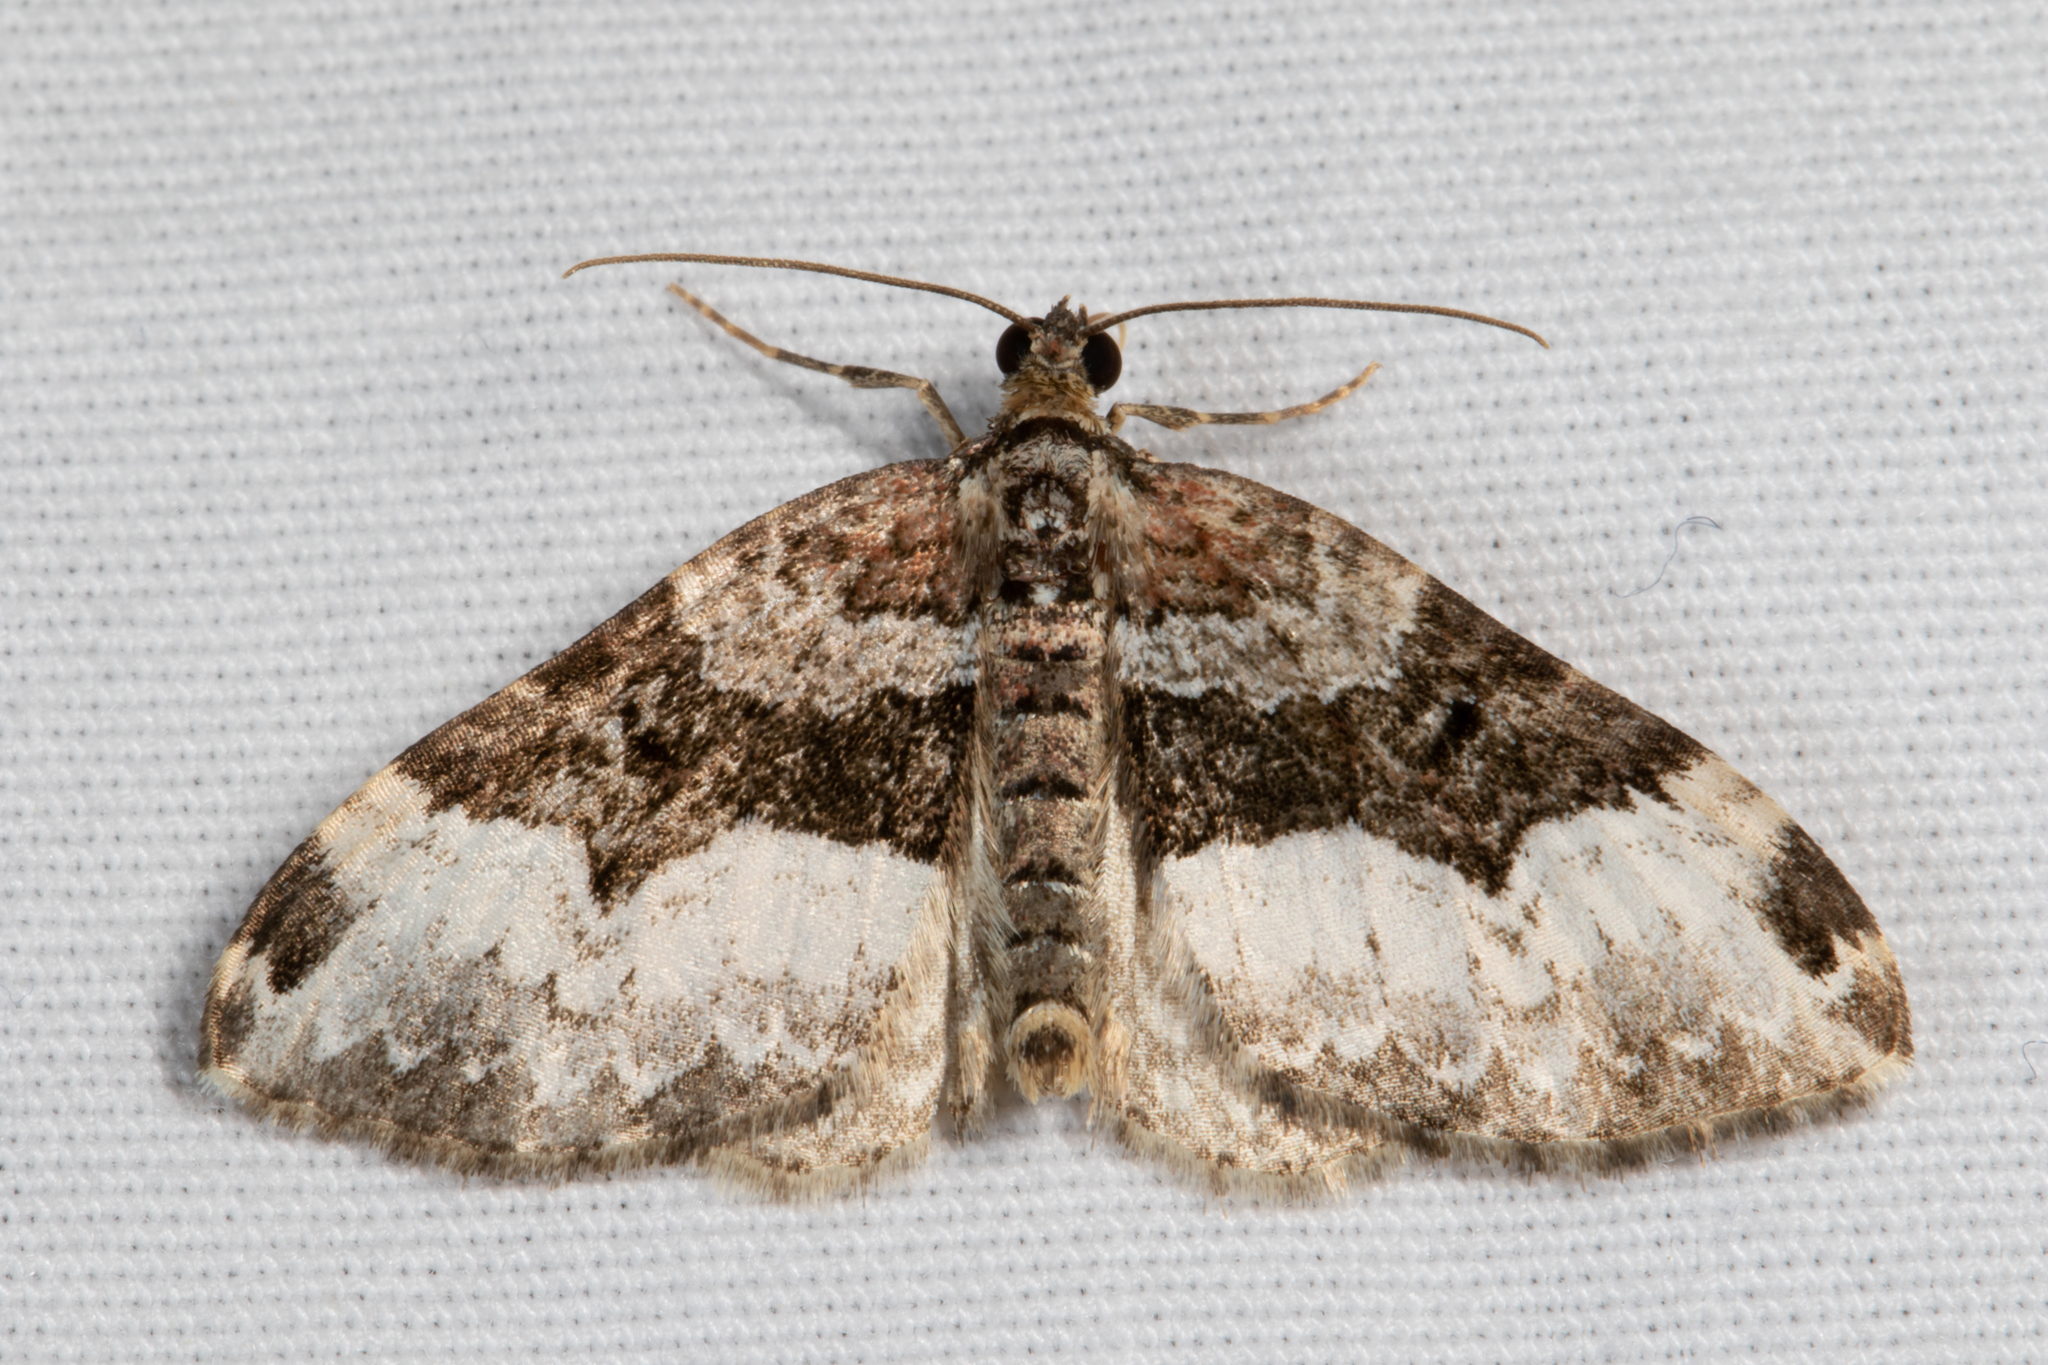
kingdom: Animalia
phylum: Arthropoda
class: Insecta
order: Lepidoptera
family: Geometridae
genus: Euphyia
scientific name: Euphyia intermediata
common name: Sharp-angled carpet
